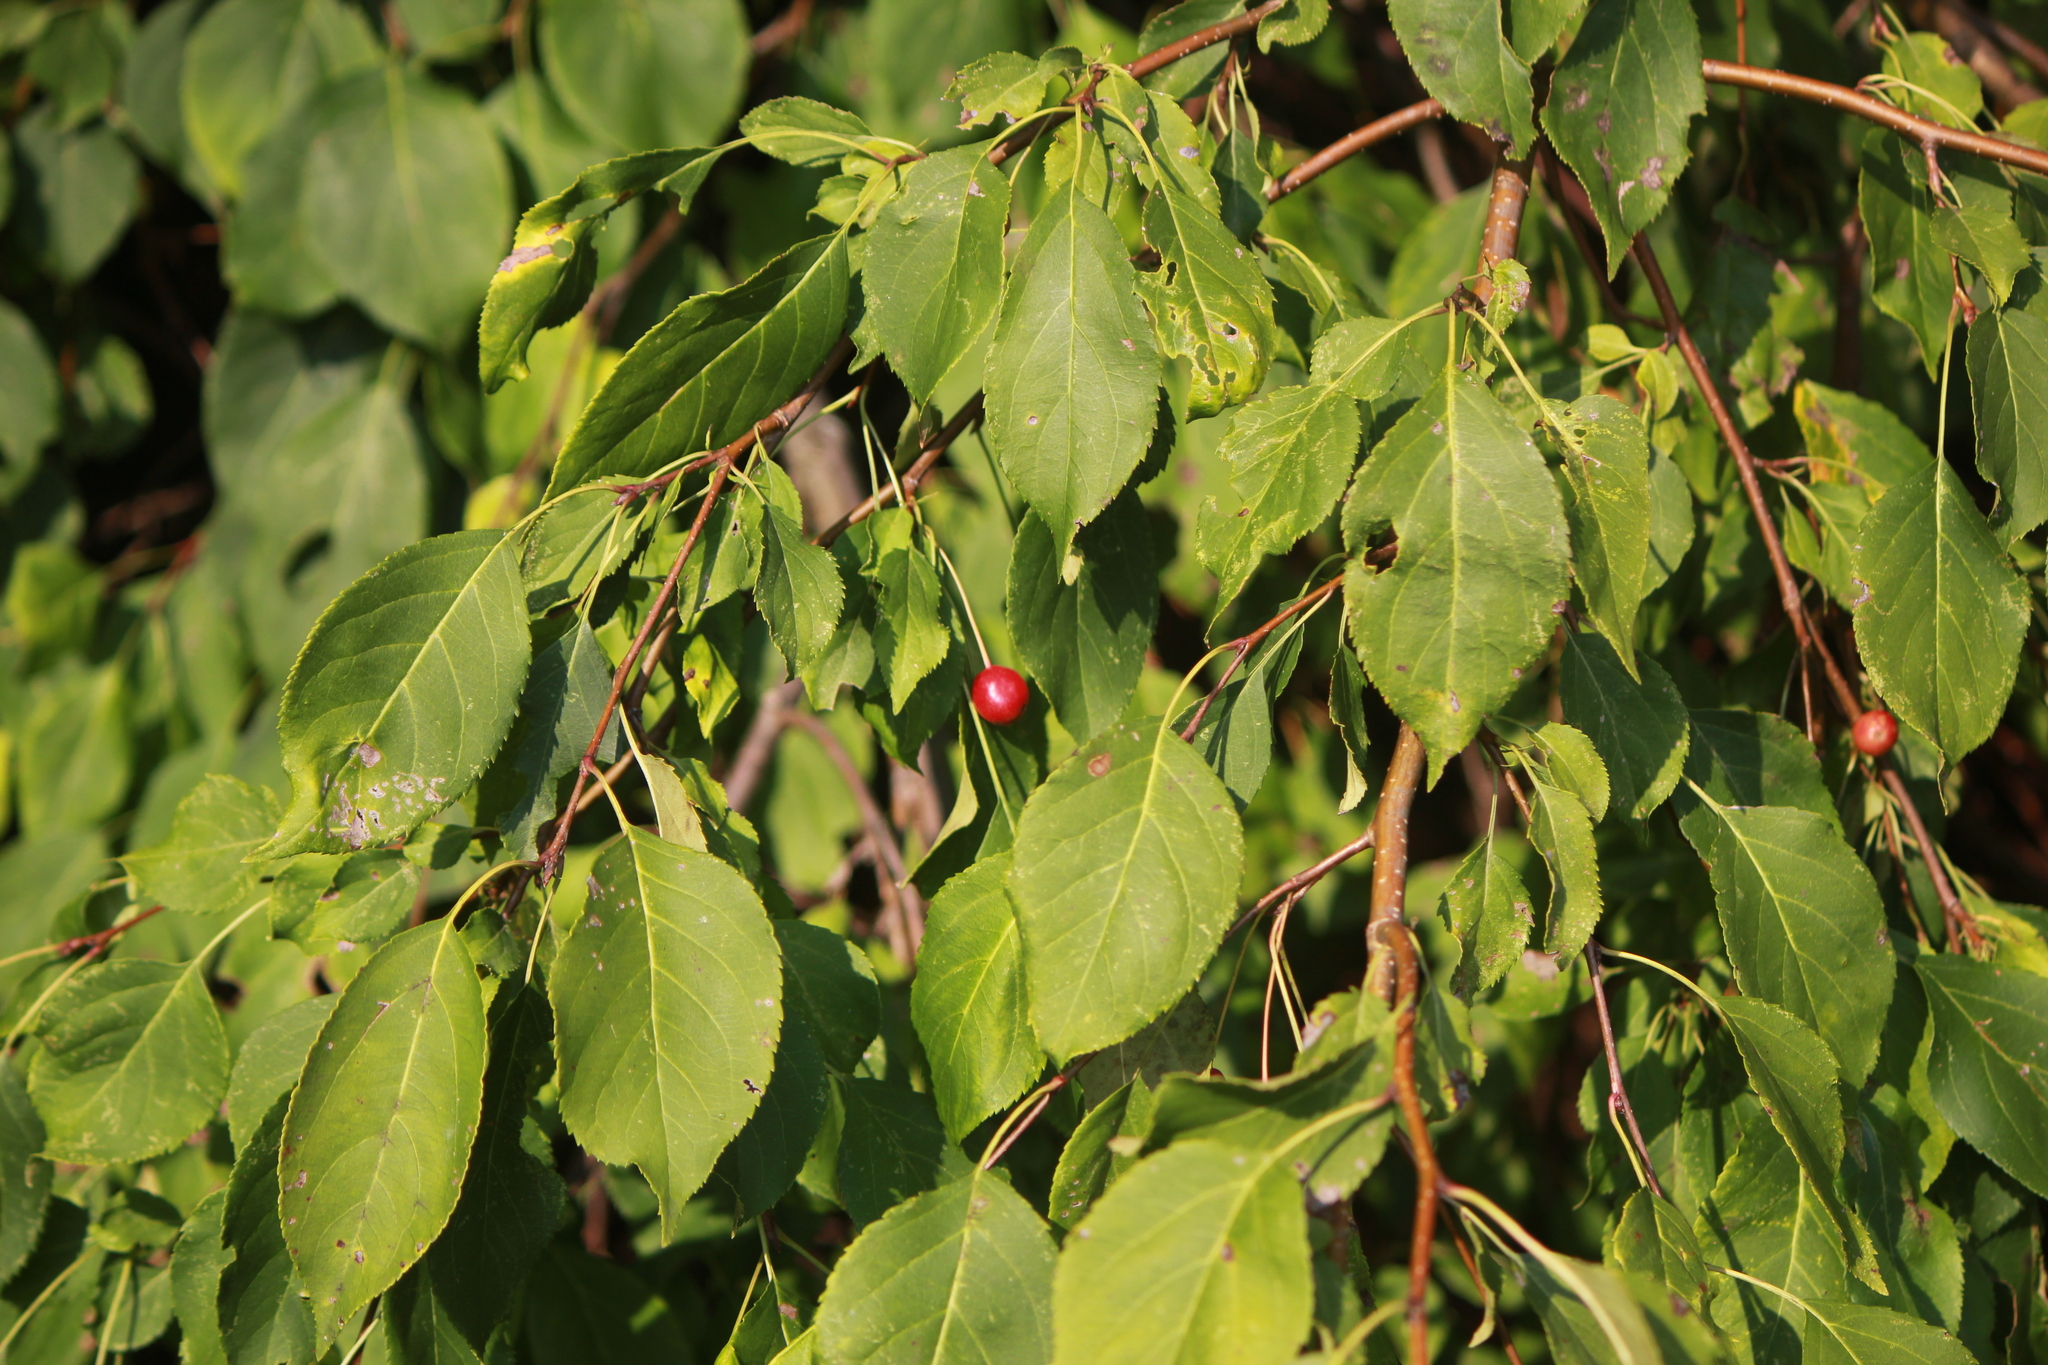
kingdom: Plantae
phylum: Tracheophyta
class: Magnoliopsida
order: Rosales
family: Rosaceae
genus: Malus
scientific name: Malus baccata
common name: Siberian crab
